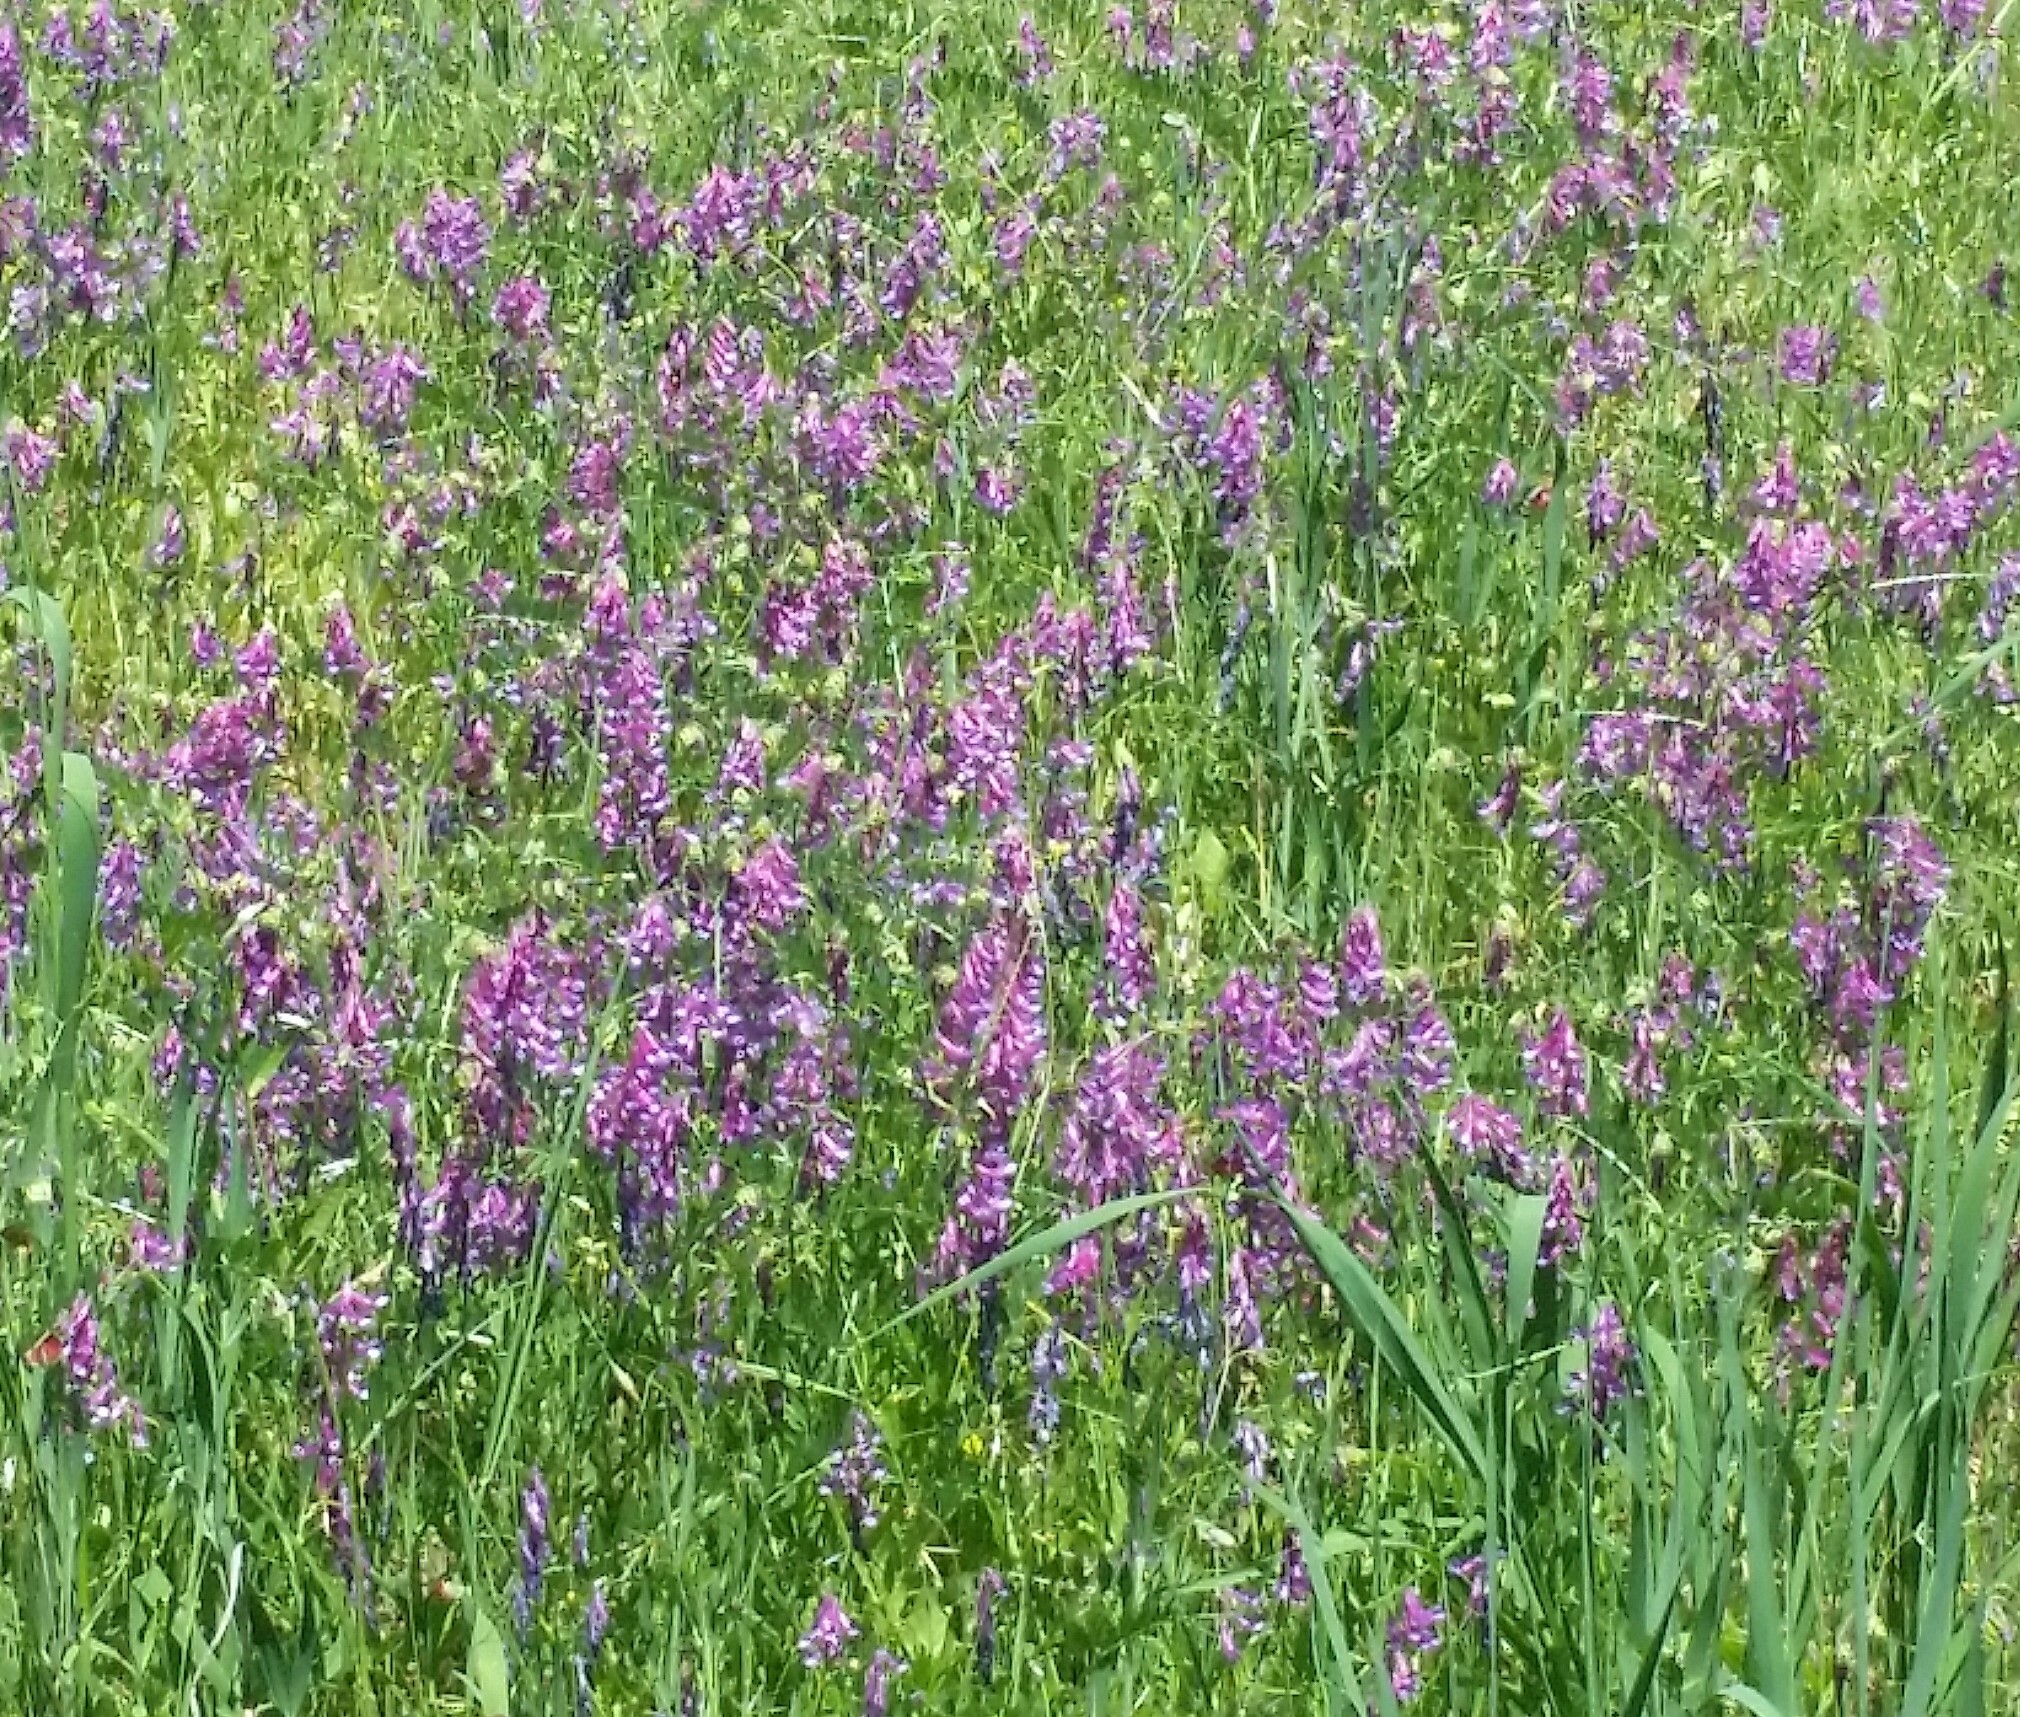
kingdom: Plantae
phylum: Tracheophyta
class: Magnoliopsida
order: Fabales
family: Fabaceae
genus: Vicia
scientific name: Vicia villosa
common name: Fodder vetch
